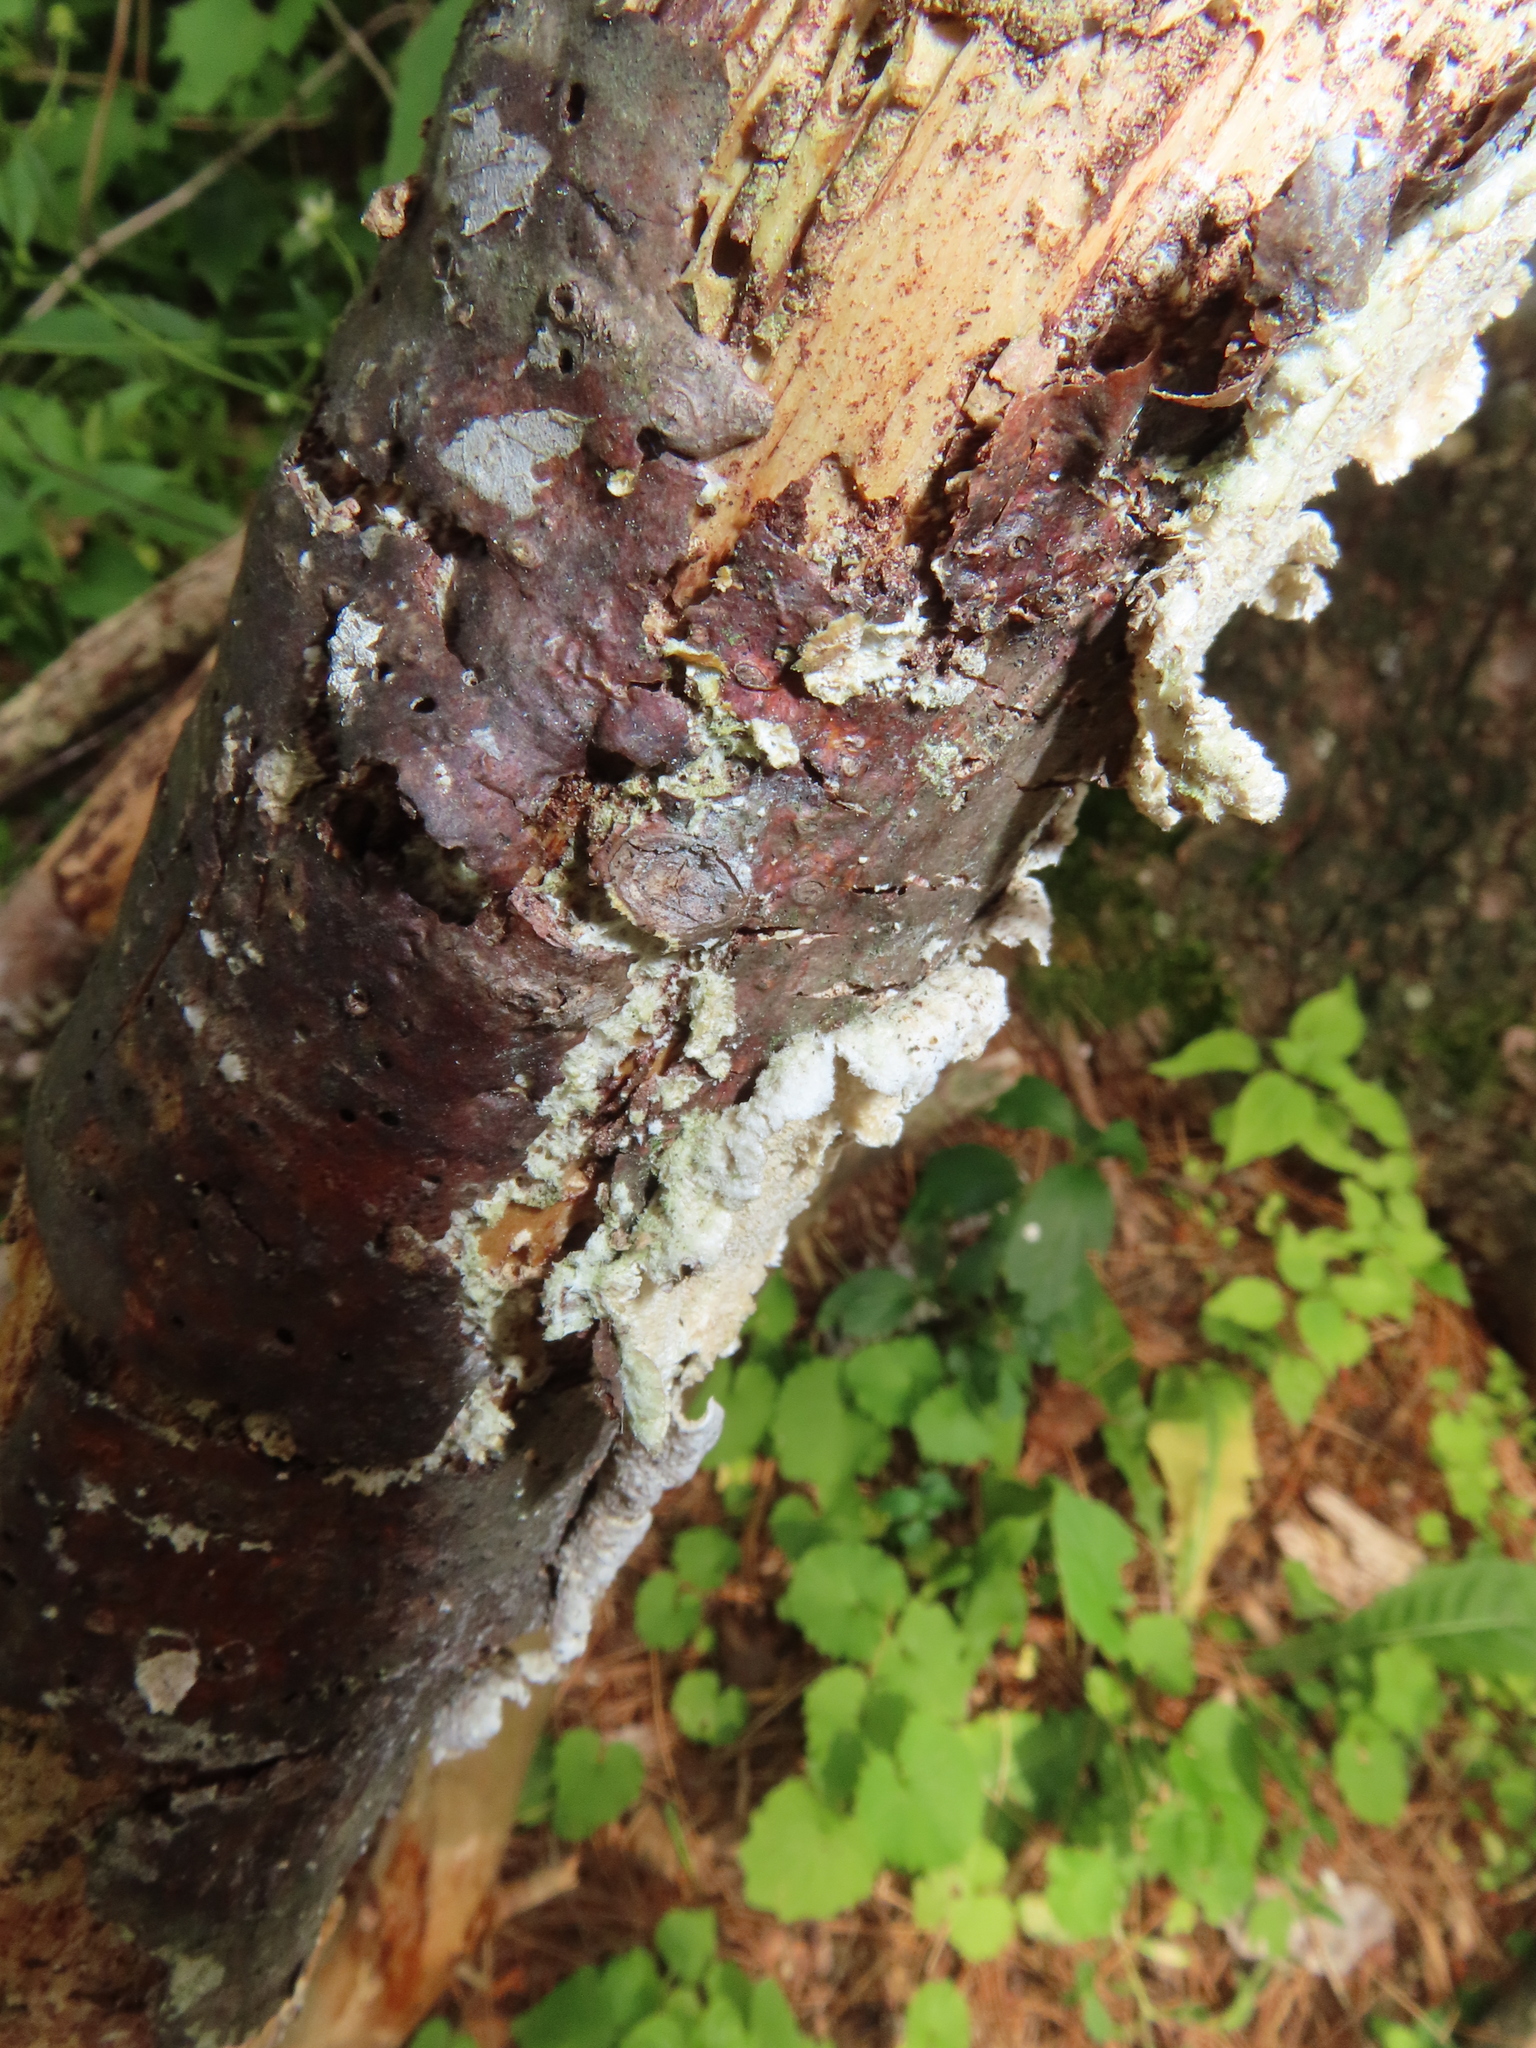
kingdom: Fungi
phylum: Basidiomycota
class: Agaricomycetes
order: Polyporales
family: Irpicaceae
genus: Irpex
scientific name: Irpex lacteus
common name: Milk-white toothed polypore
